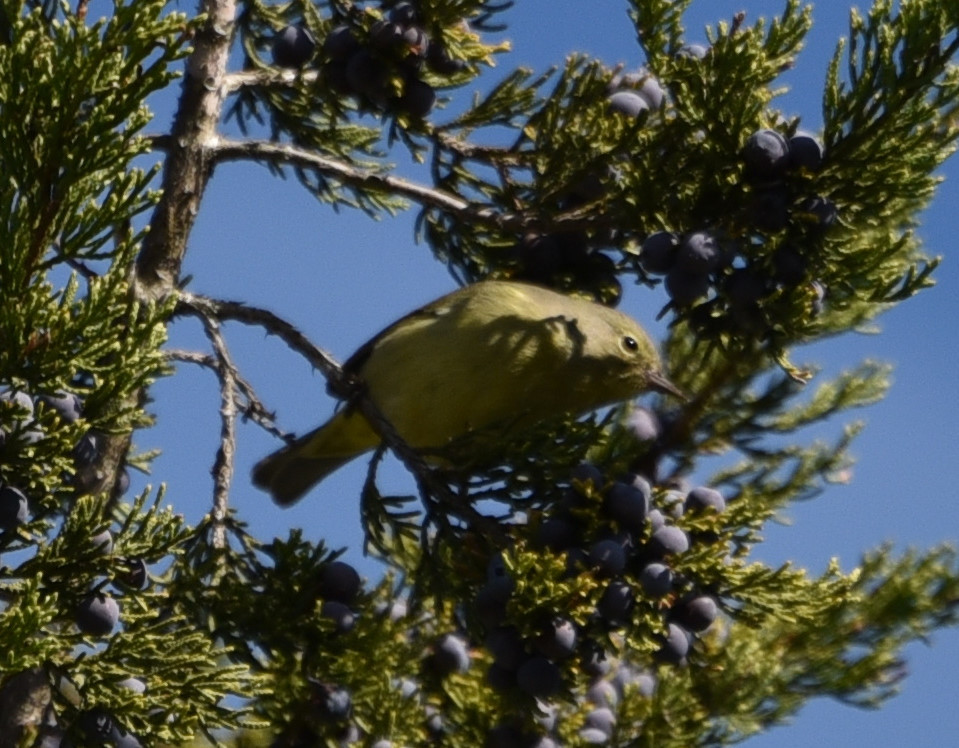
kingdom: Animalia
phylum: Chordata
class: Aves
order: Passeriformes
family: Parulidae
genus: Leiothlypis
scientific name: Leiothlypis celata
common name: Orange-crowned warbler
